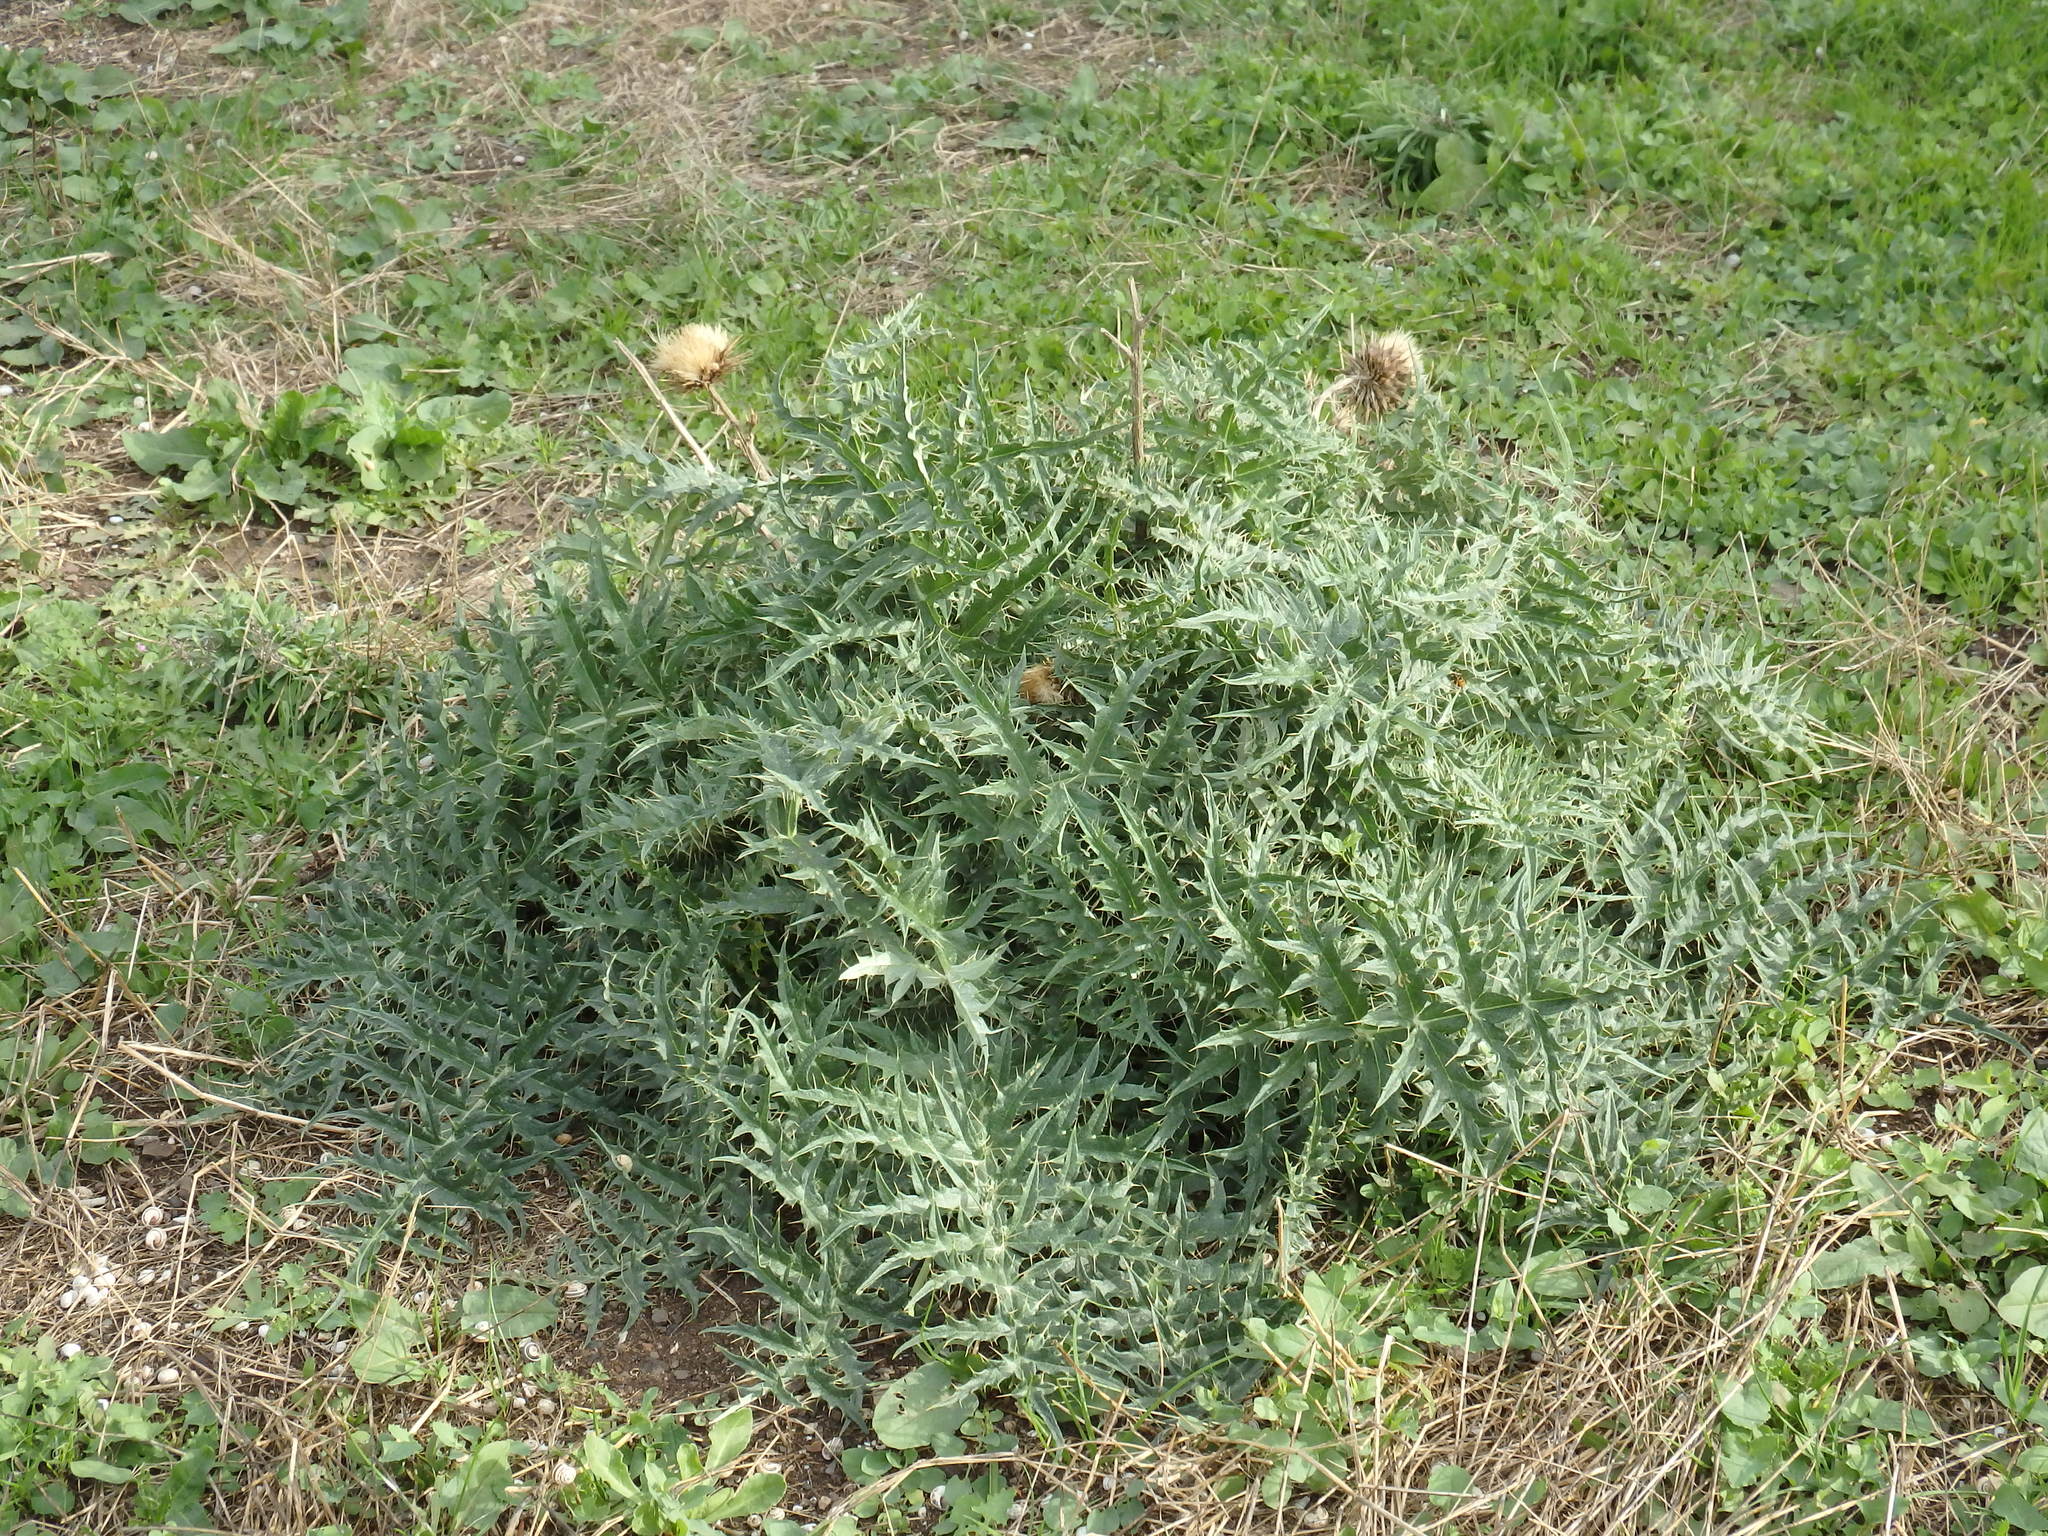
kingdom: Plantae
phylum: Tracheophyta
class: Magnoliopsida
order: Asterales
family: Asteraceae
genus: Cynara
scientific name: Cynara cardunculus
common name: Globe artichoke
